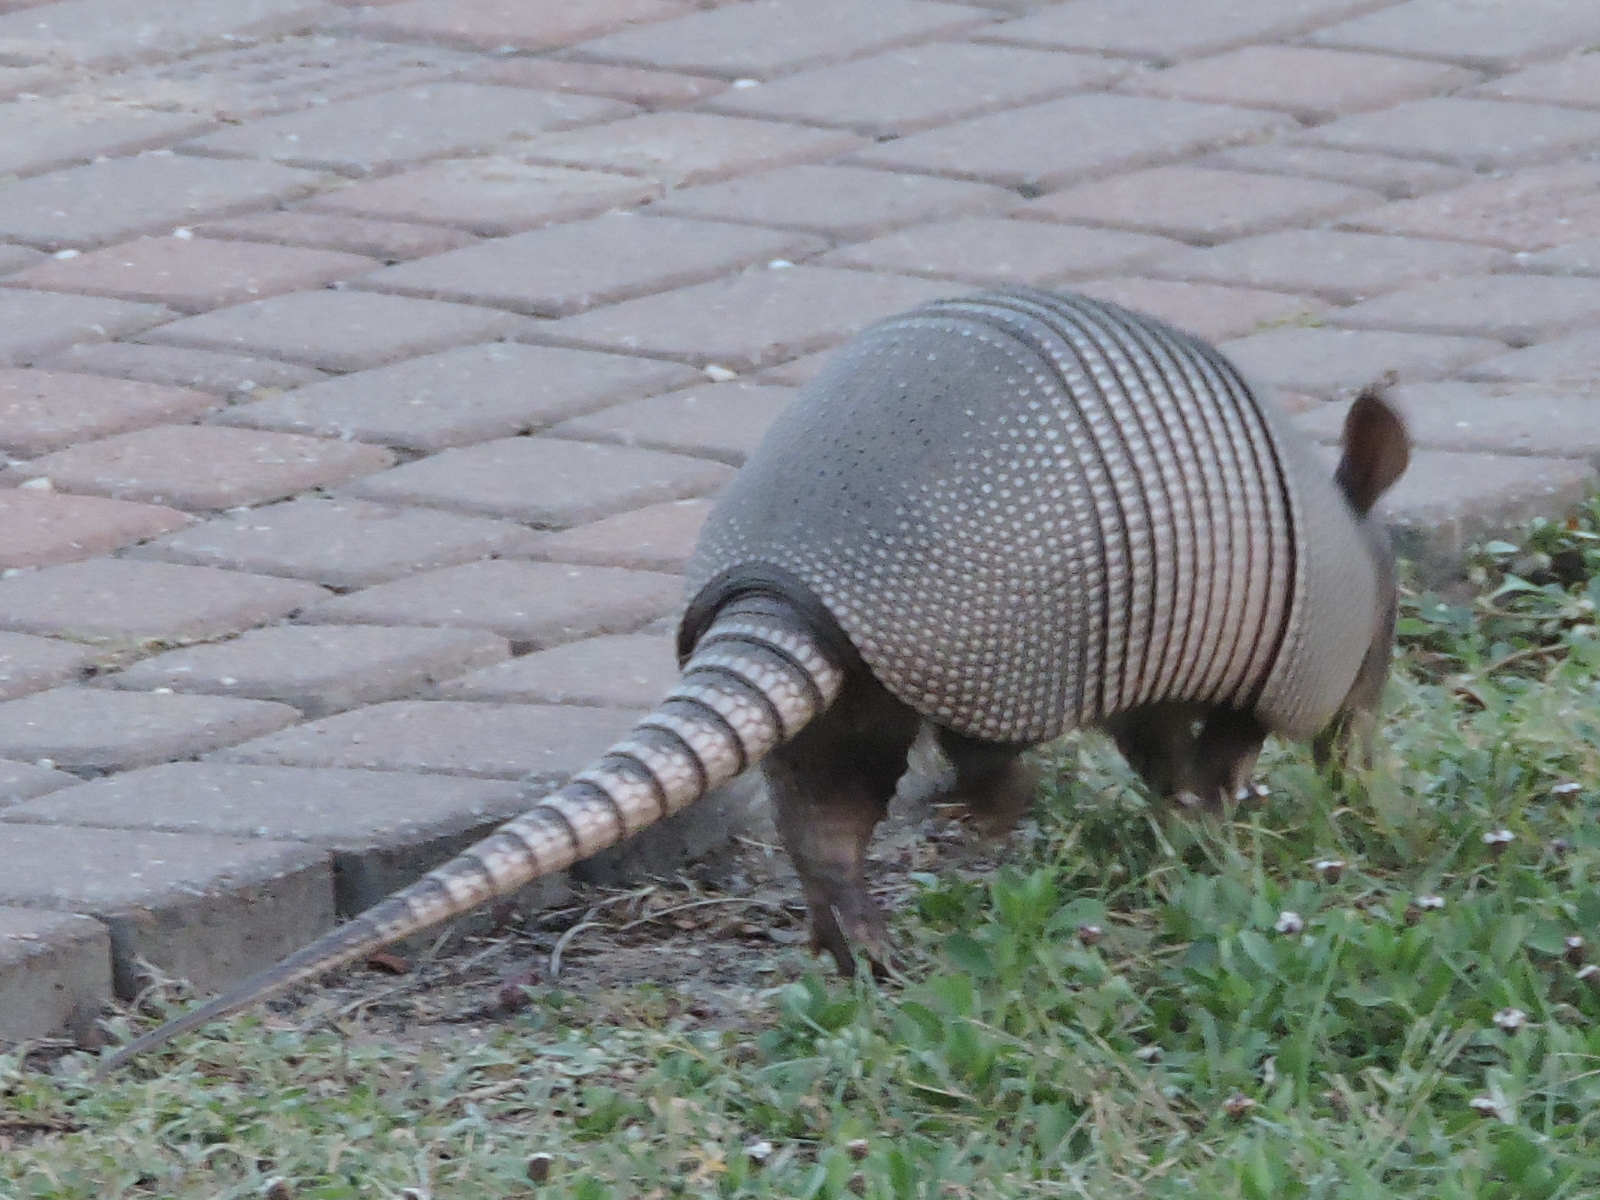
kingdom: Animalia
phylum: Chordata
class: Mammalia
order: Cingulata
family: Dasypodidae
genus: Dasypus
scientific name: Dasypus novemcinctus
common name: Nine-banded armadillo
